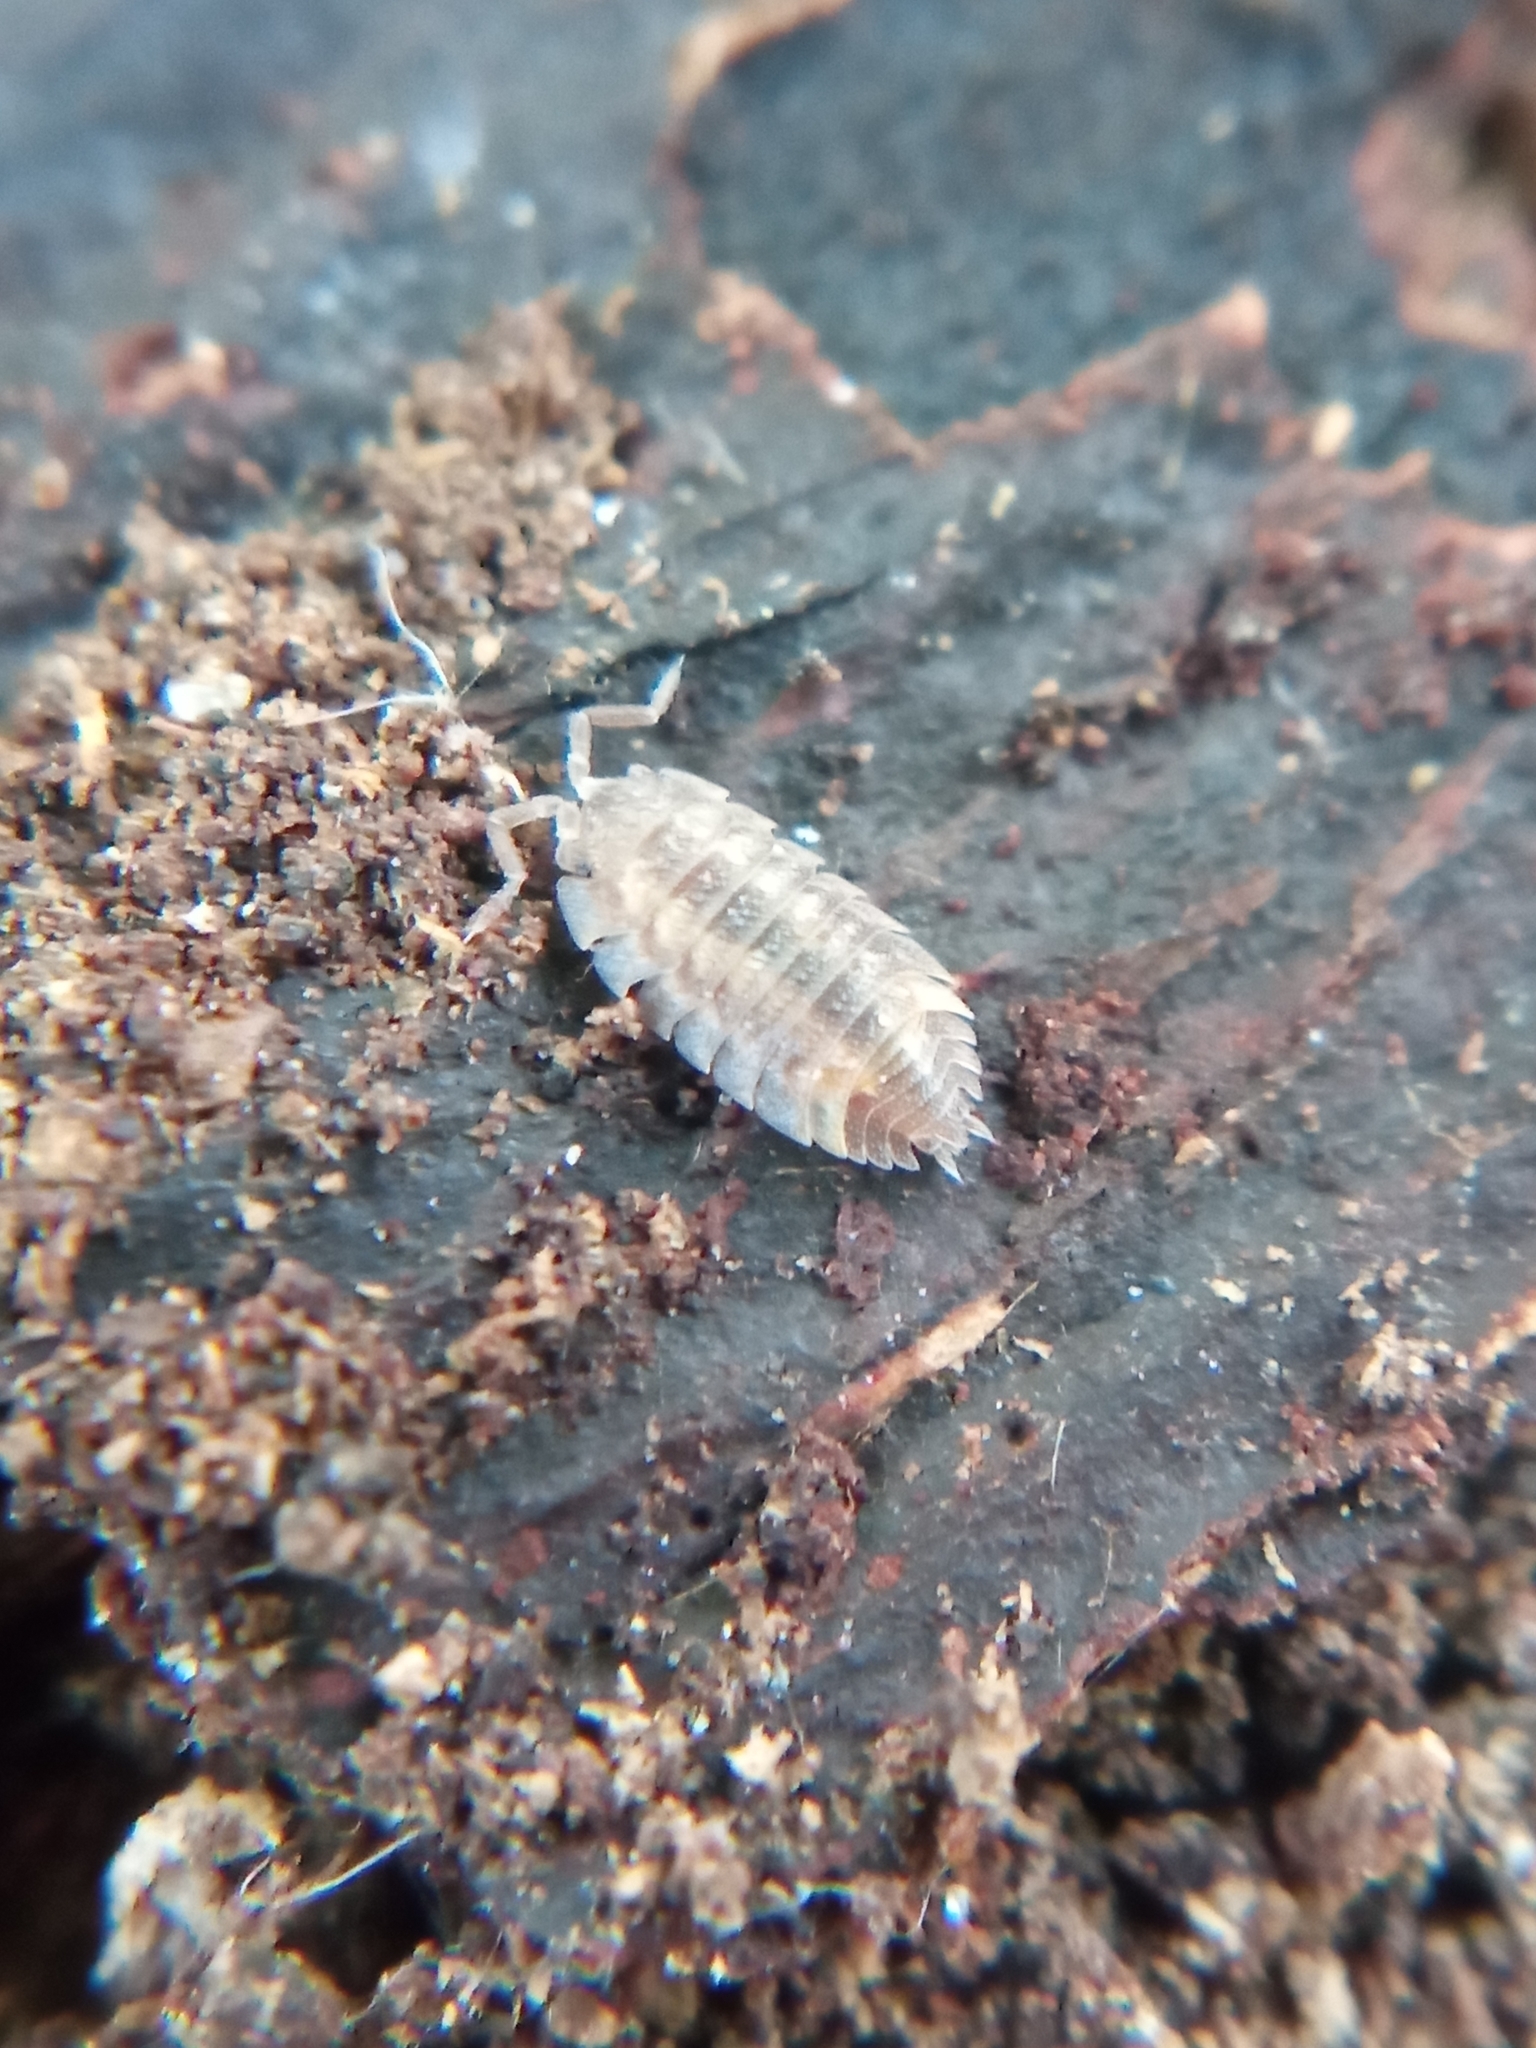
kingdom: Animalia
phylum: Arthropoda
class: Malacostraca
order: Isopoda
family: Oniscidae
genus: Oniscus
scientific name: Oniscus asellus
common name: Common shiny woodlouse
